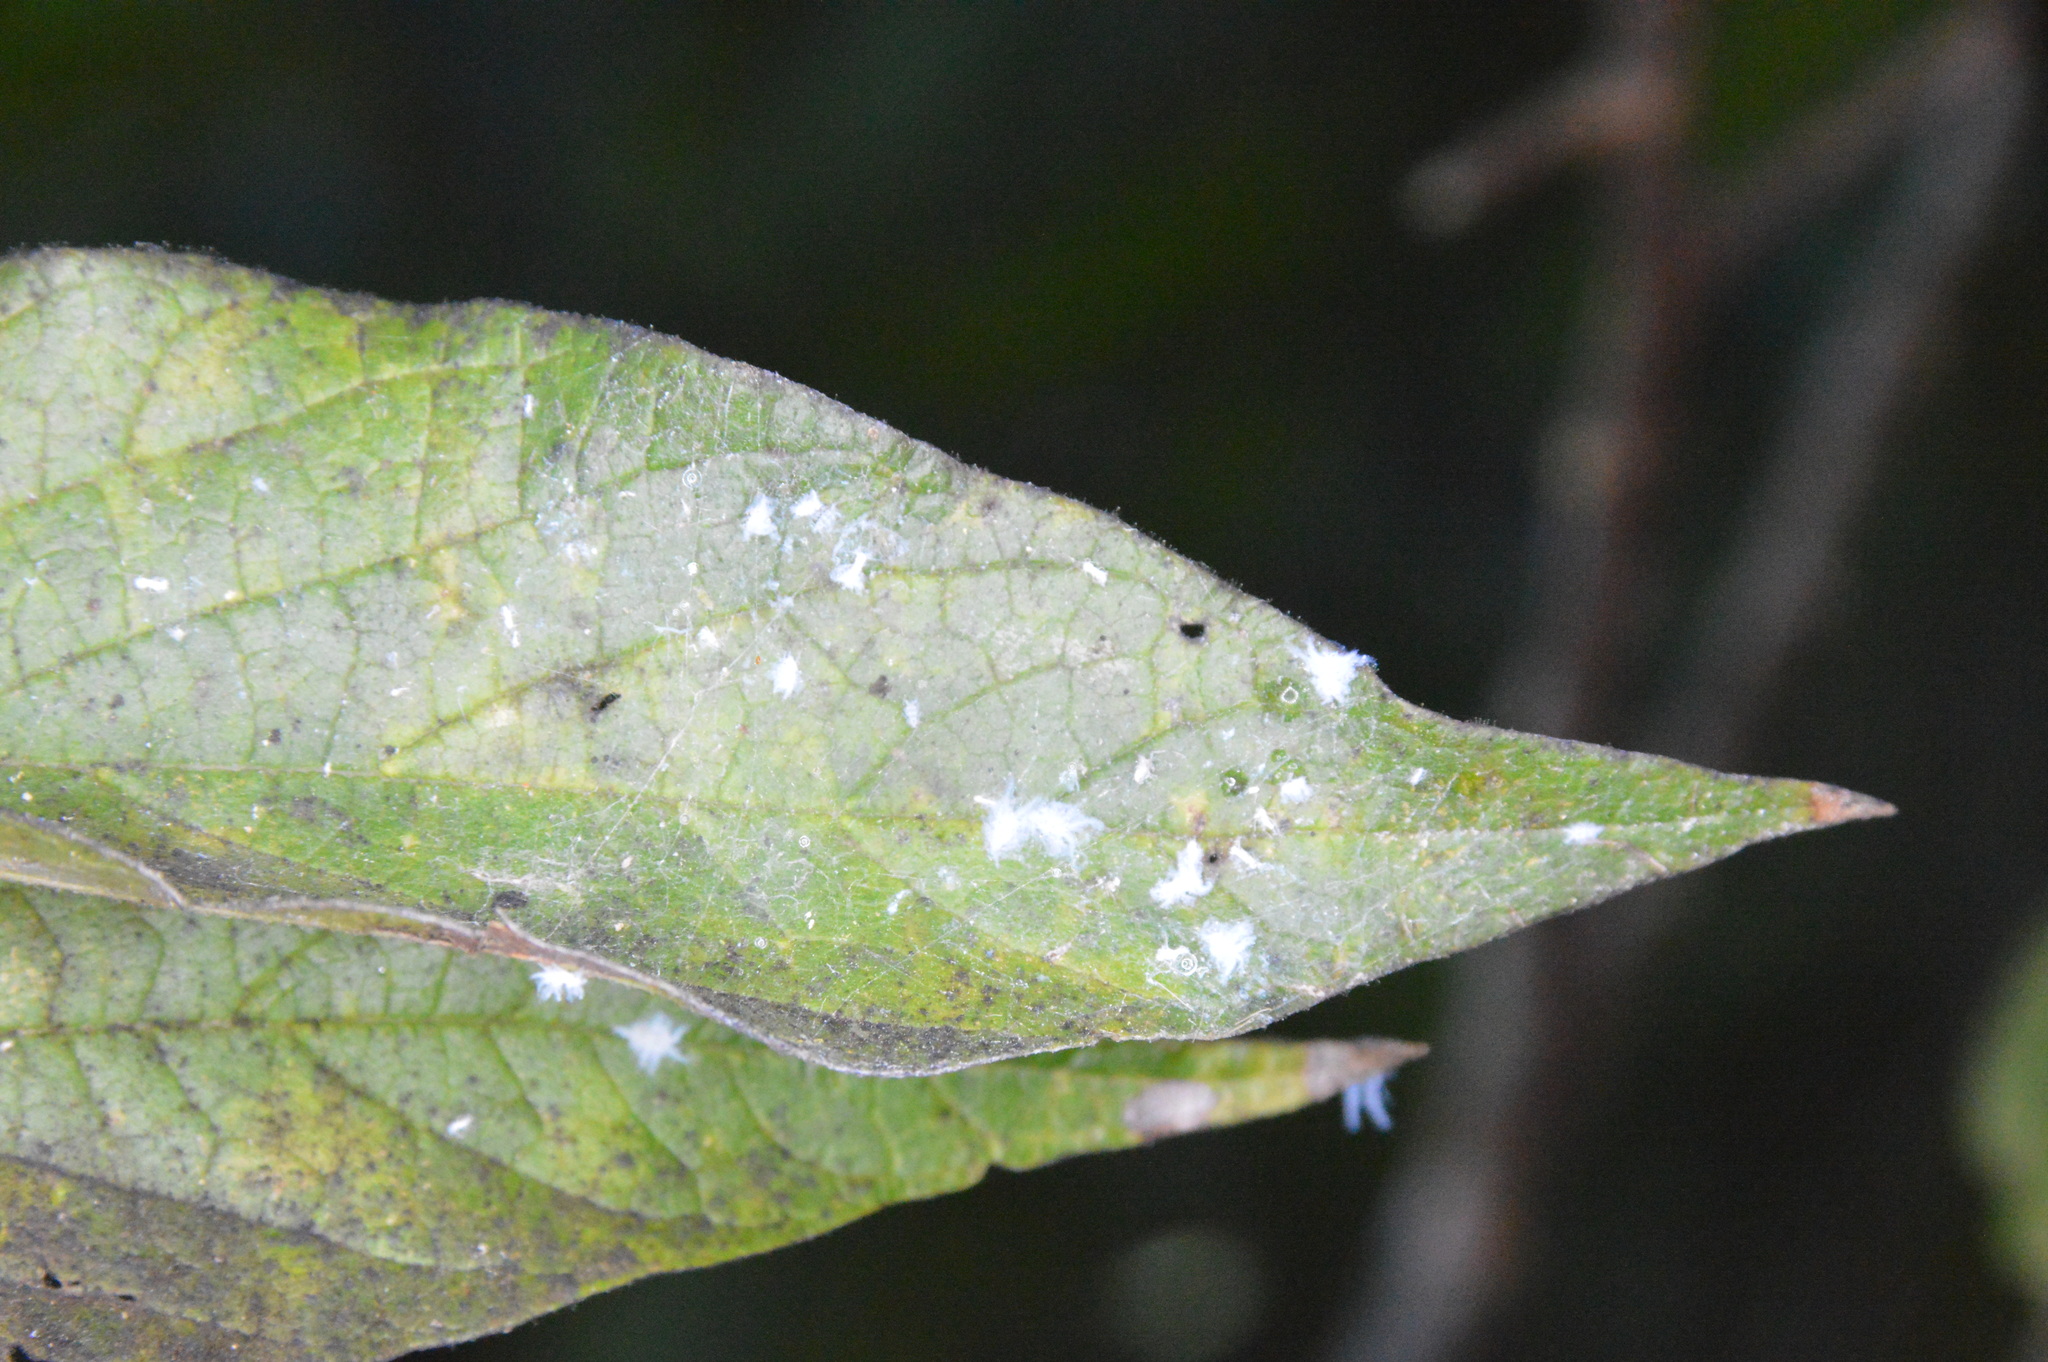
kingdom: Animalia
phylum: Arthropoda
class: Insecta
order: Hemiptera
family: Aphididae
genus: Shivaphis
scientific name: Shivaphis celti
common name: Asian wooly hackberry aphid
